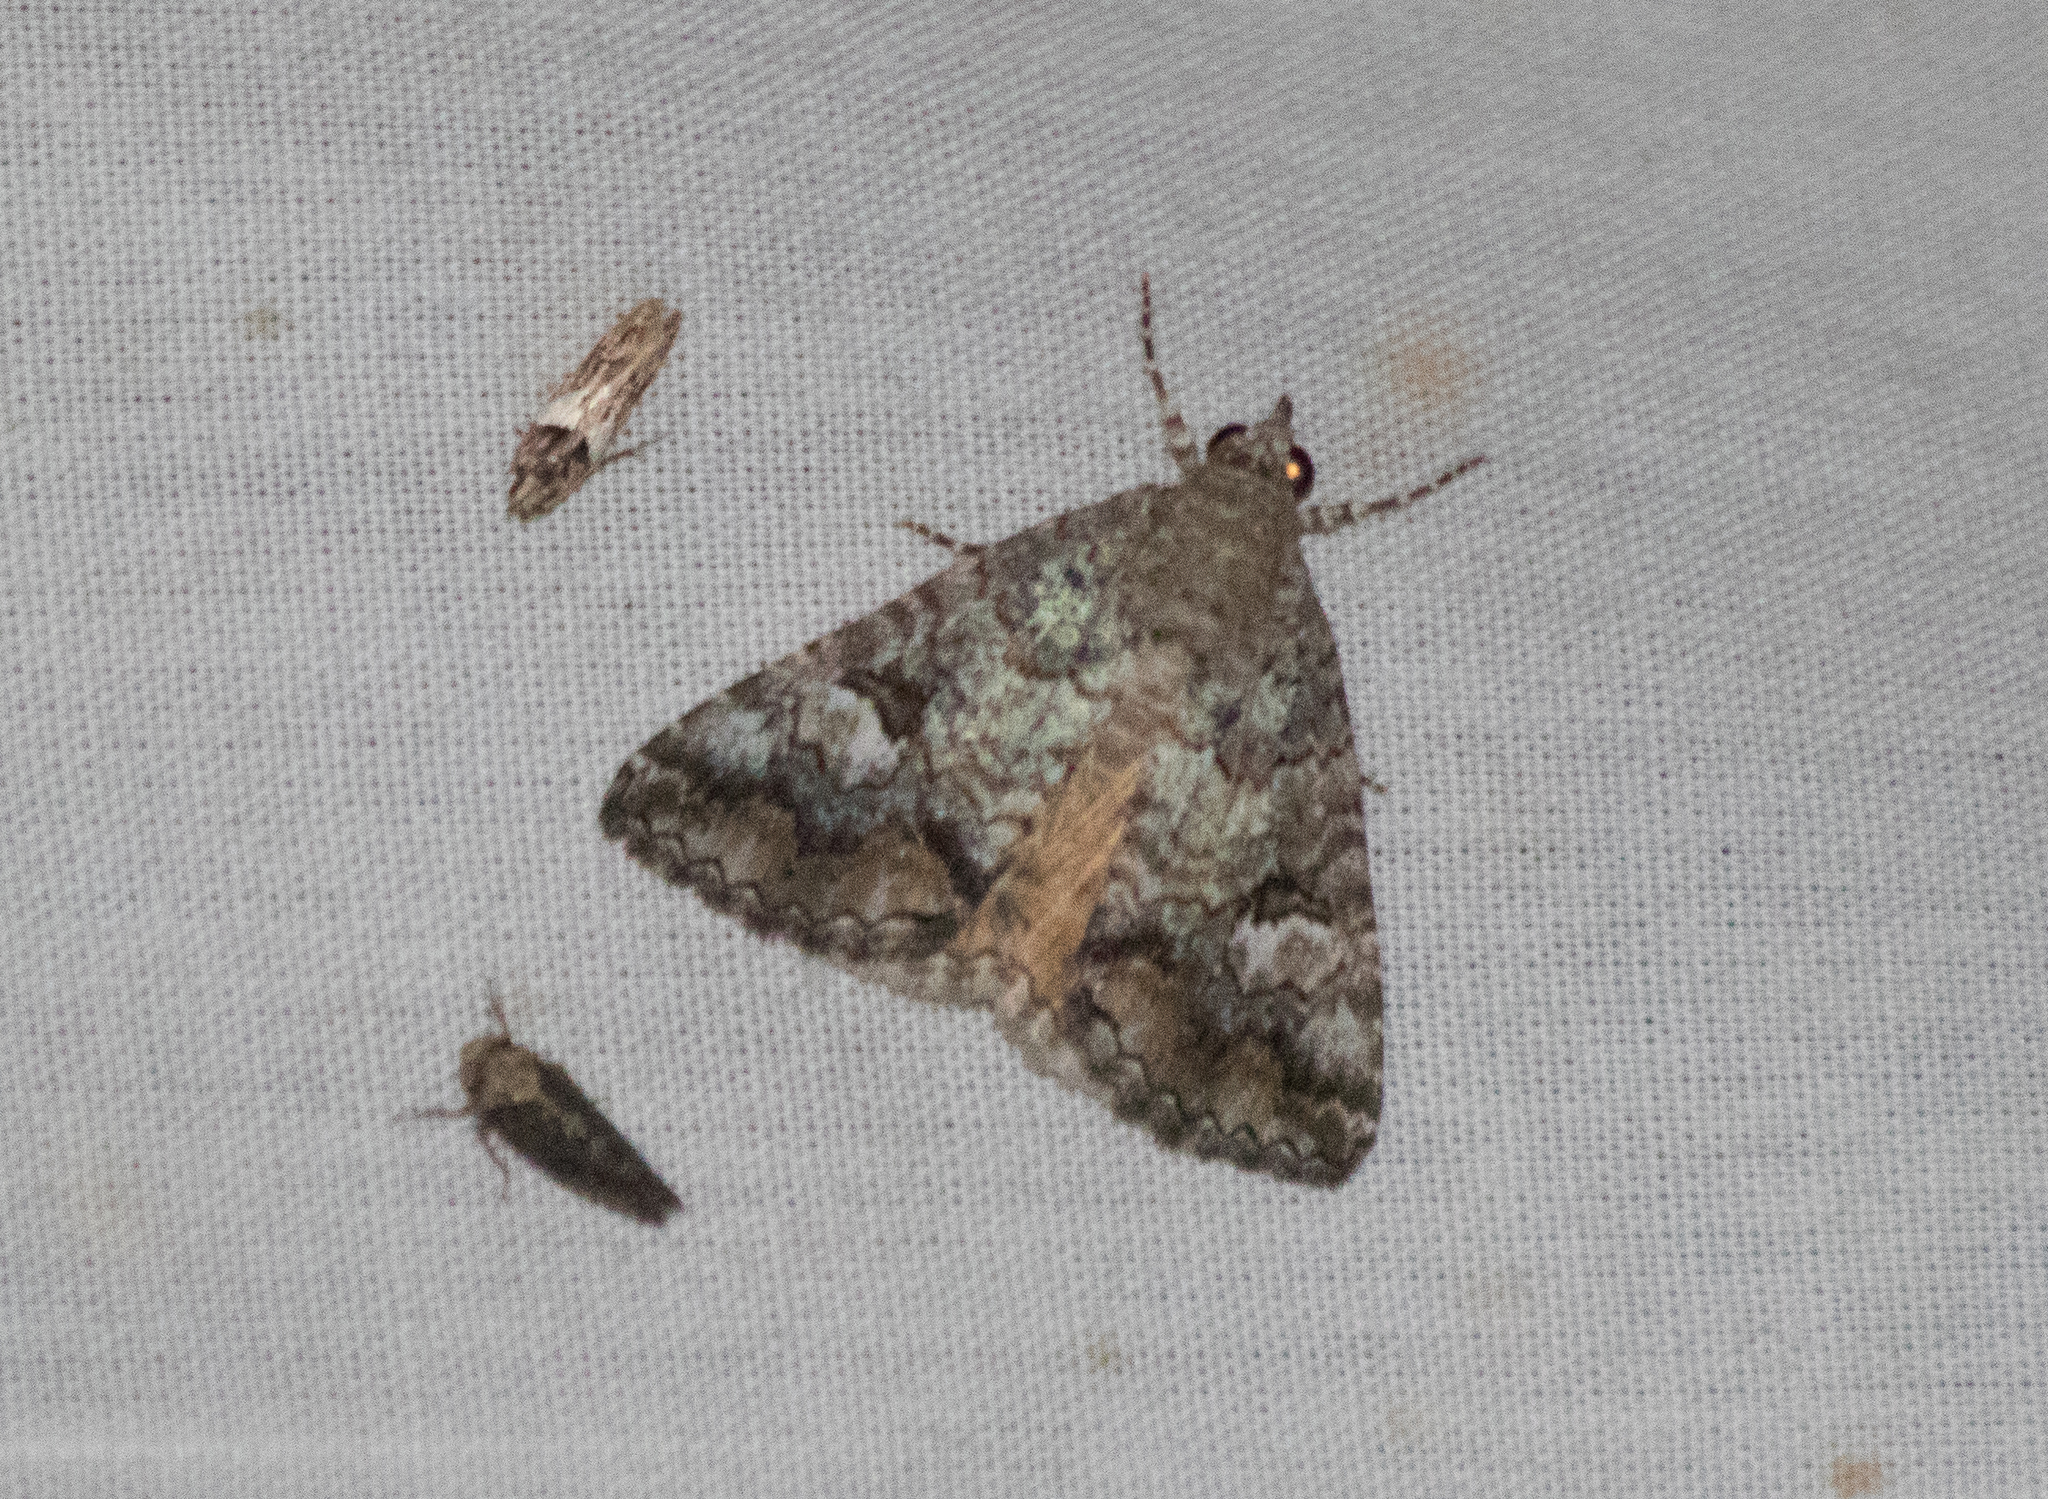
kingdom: Animalia
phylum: Arthropoda
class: Insecta
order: Lepidoptera
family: Erebidae
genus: Eubolina
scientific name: Eubolina impartialis
